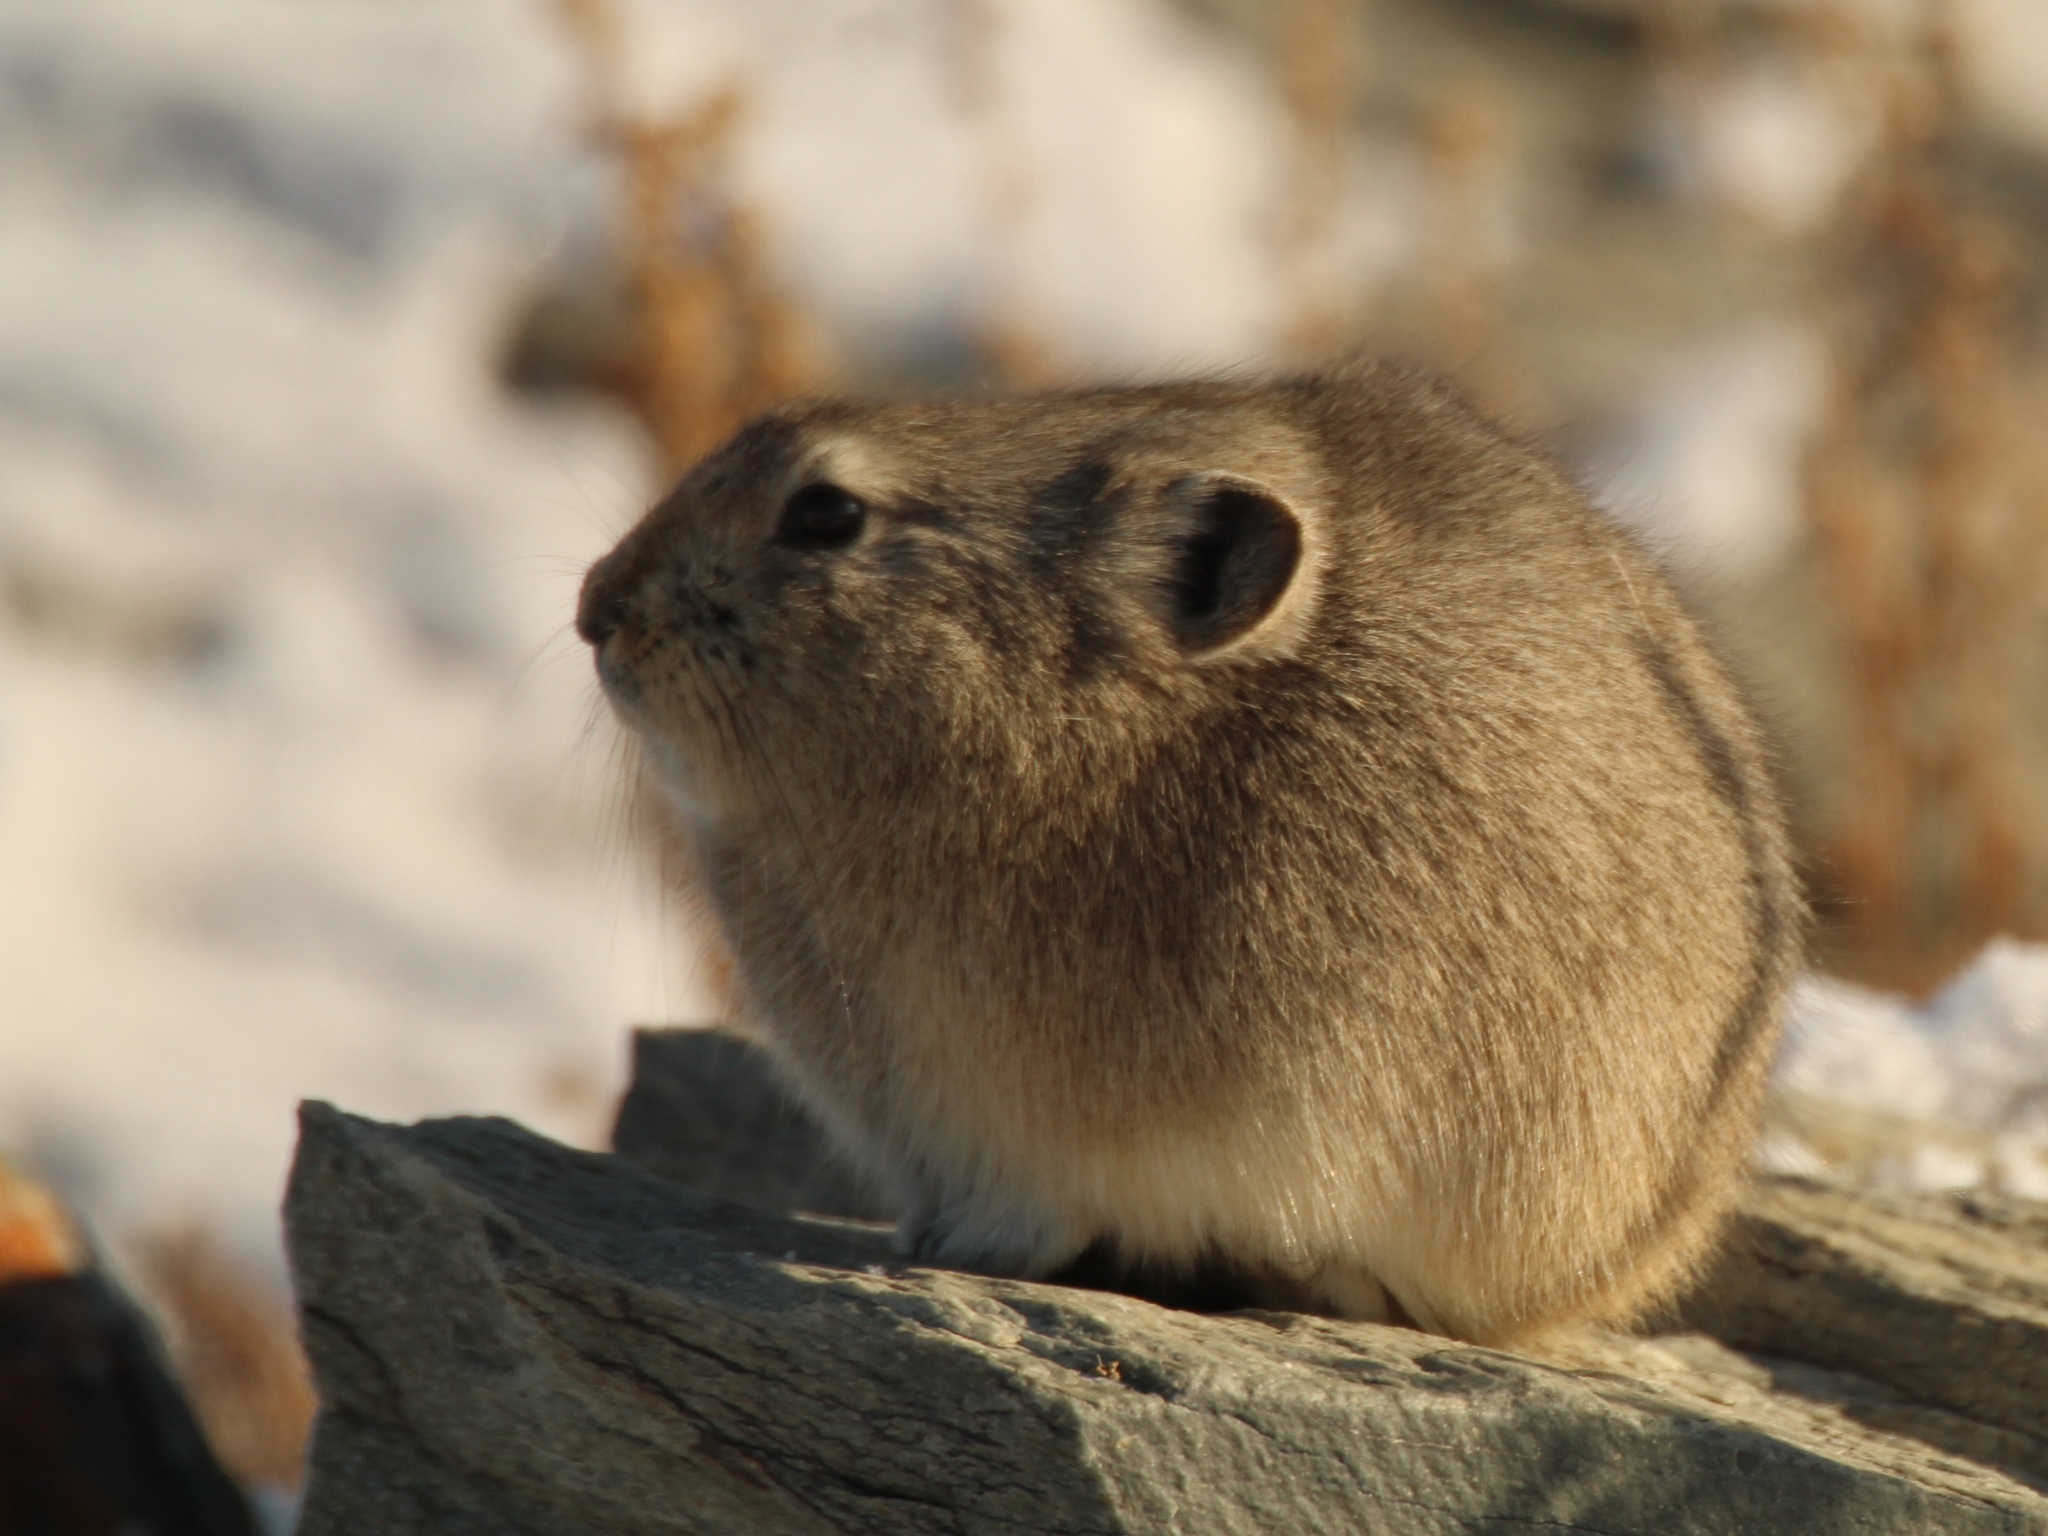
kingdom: Animalia
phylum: Chordata
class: Mammalia
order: Lagomorpha
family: Ochotonidae
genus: Ochotona
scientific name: Ochotona dauurica
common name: Daurian pika
